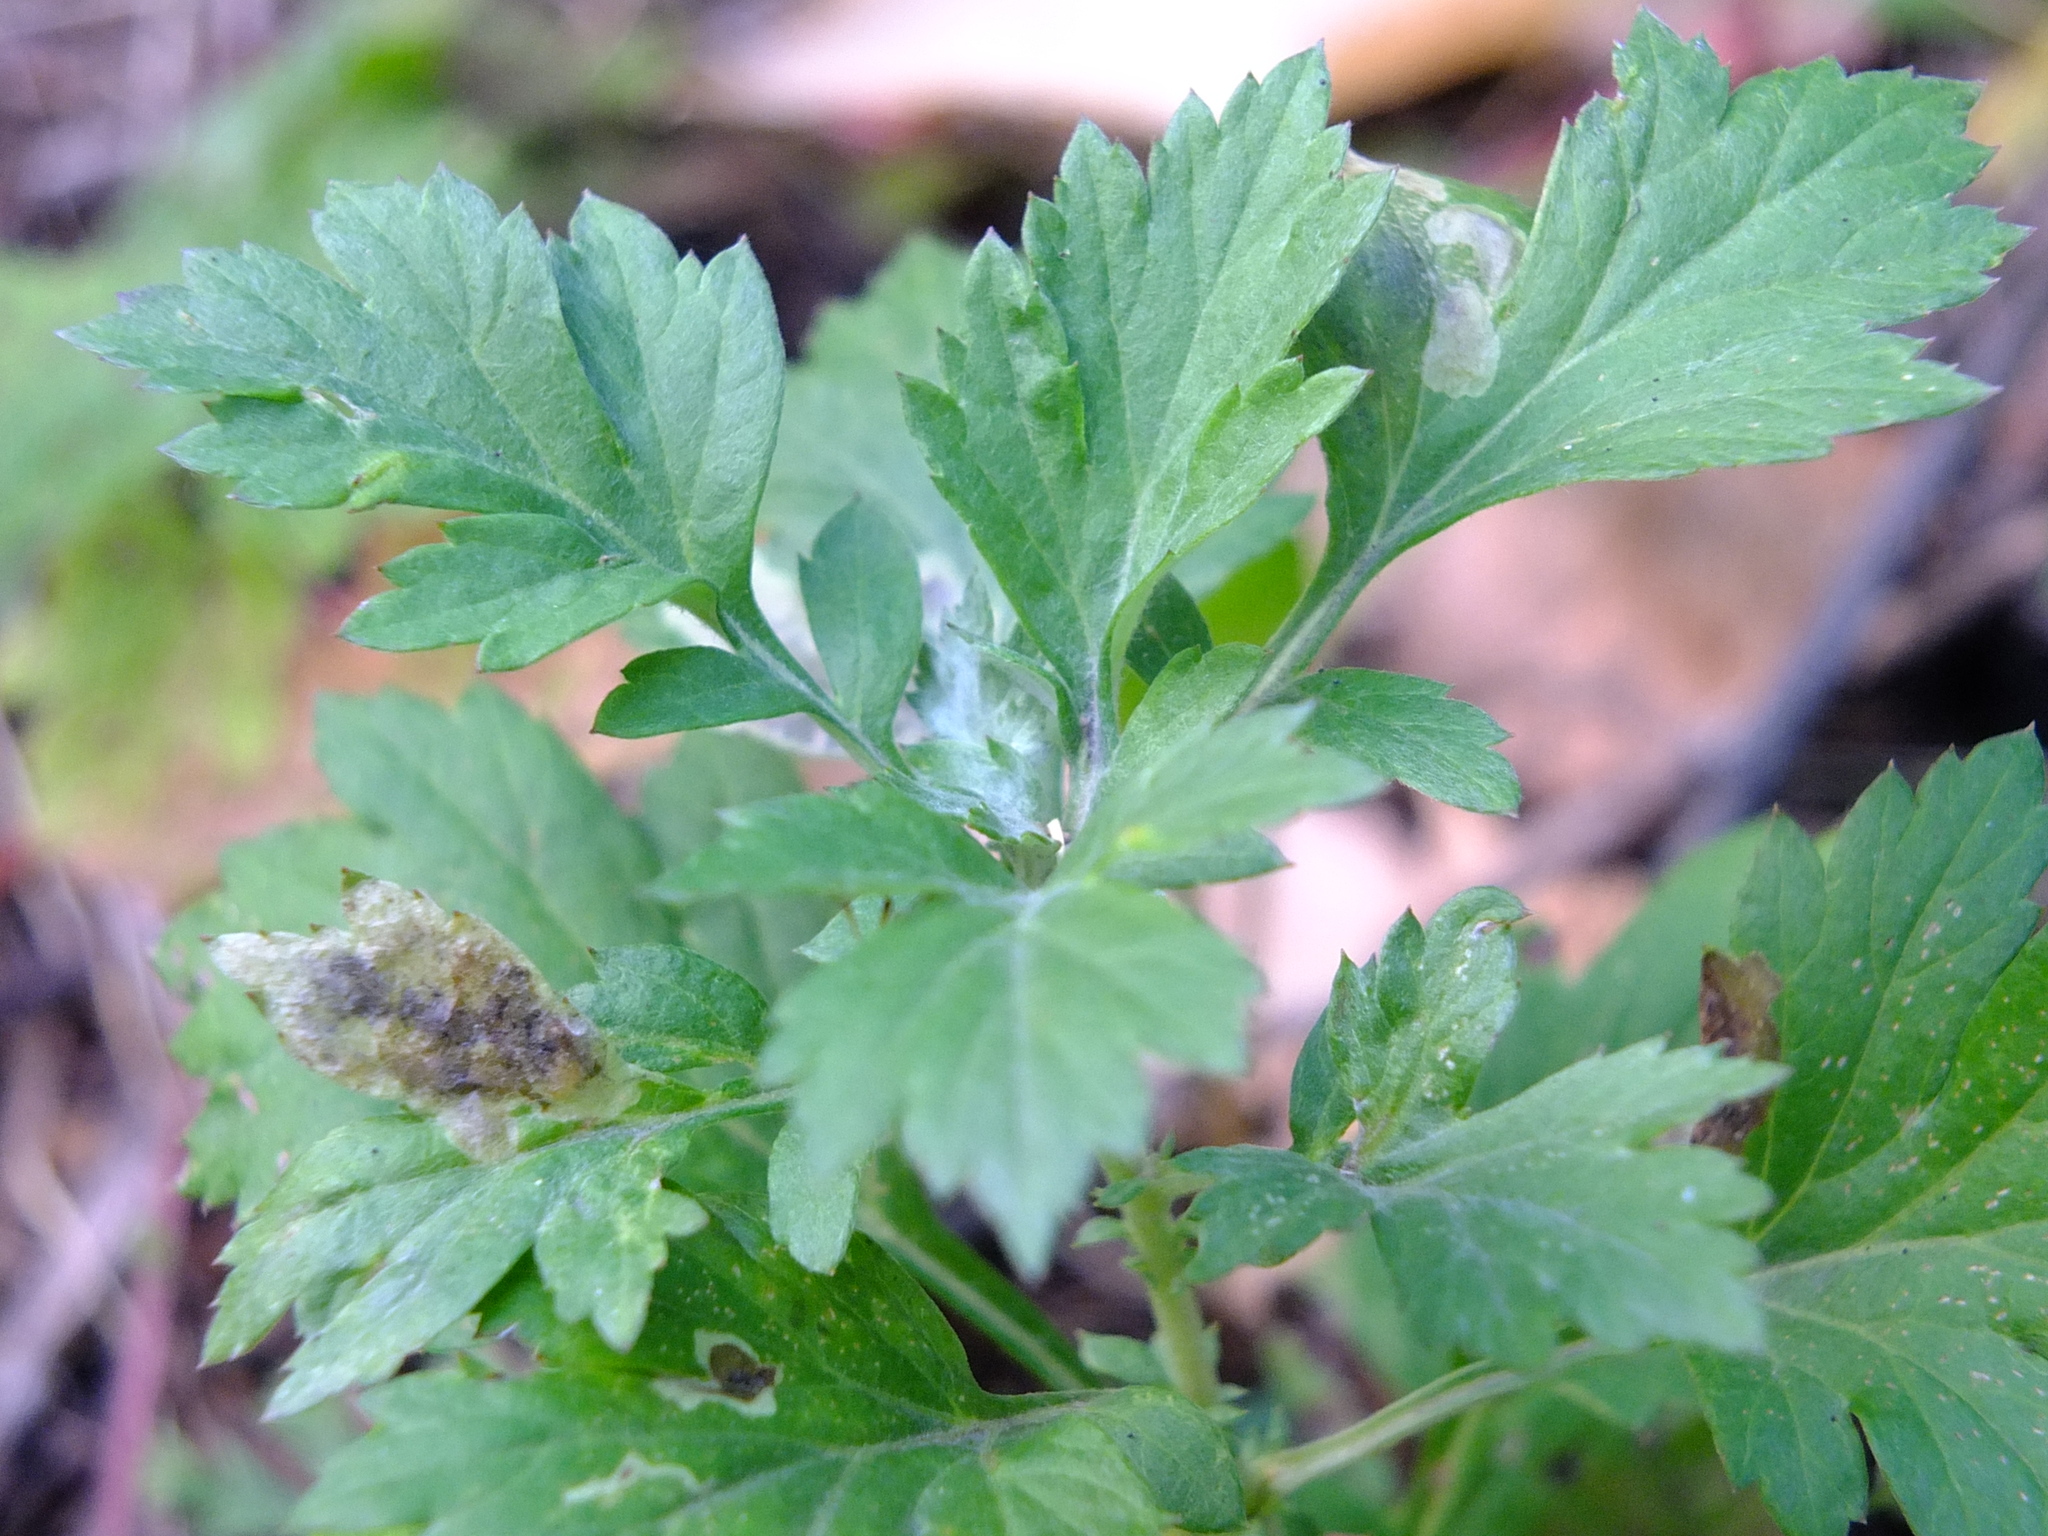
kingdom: Plantae
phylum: Tracheophyta
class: Magnoliopsida
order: Asterales
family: Asteraceae
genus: Artemisia
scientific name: Artemisia vulgaris
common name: Mugwort
